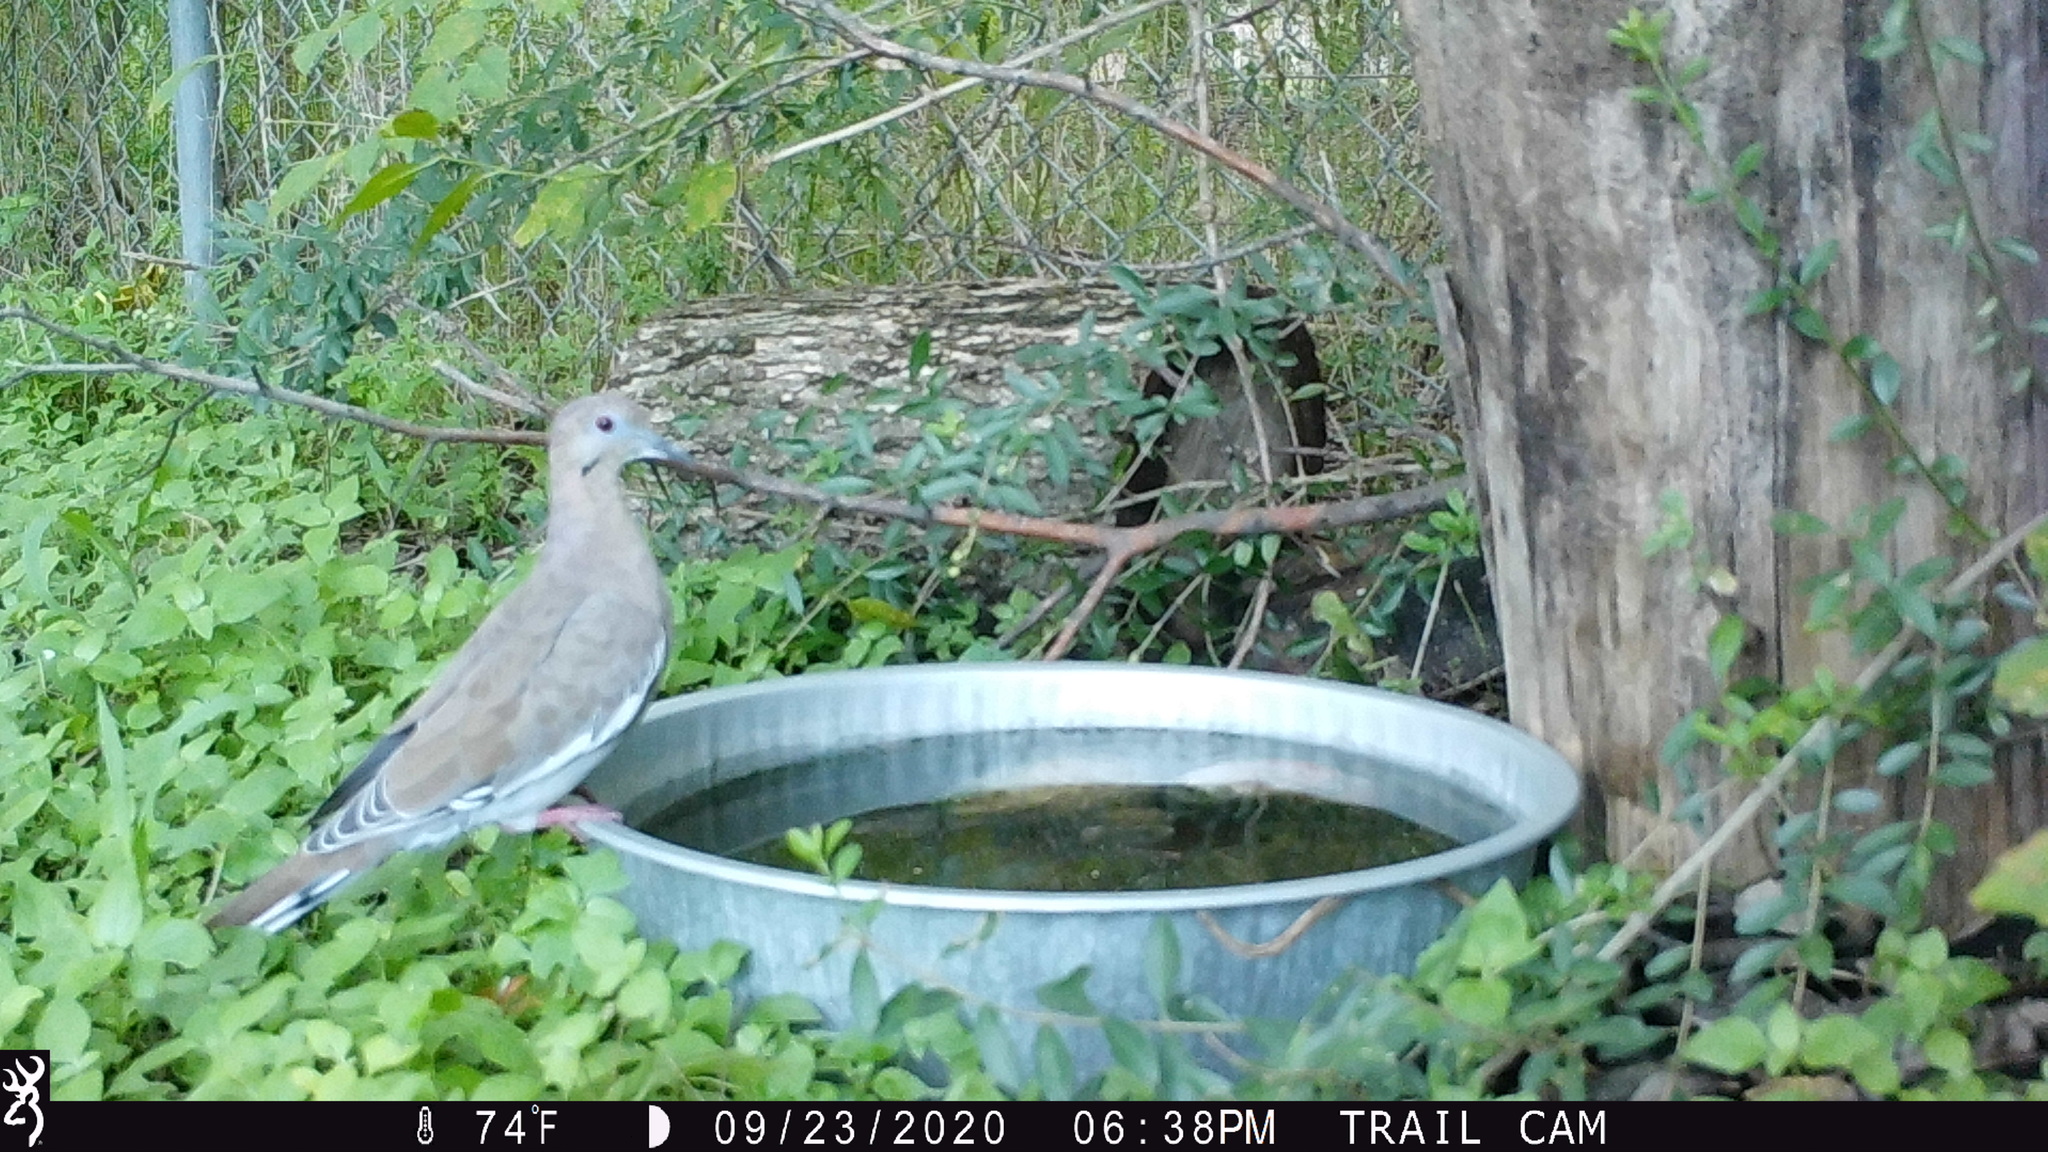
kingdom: Animalia
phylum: Chordata
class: Aves
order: Columbiformes
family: Columbidae
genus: Zenaida
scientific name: Zenaida asiatica
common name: White-winged dove
